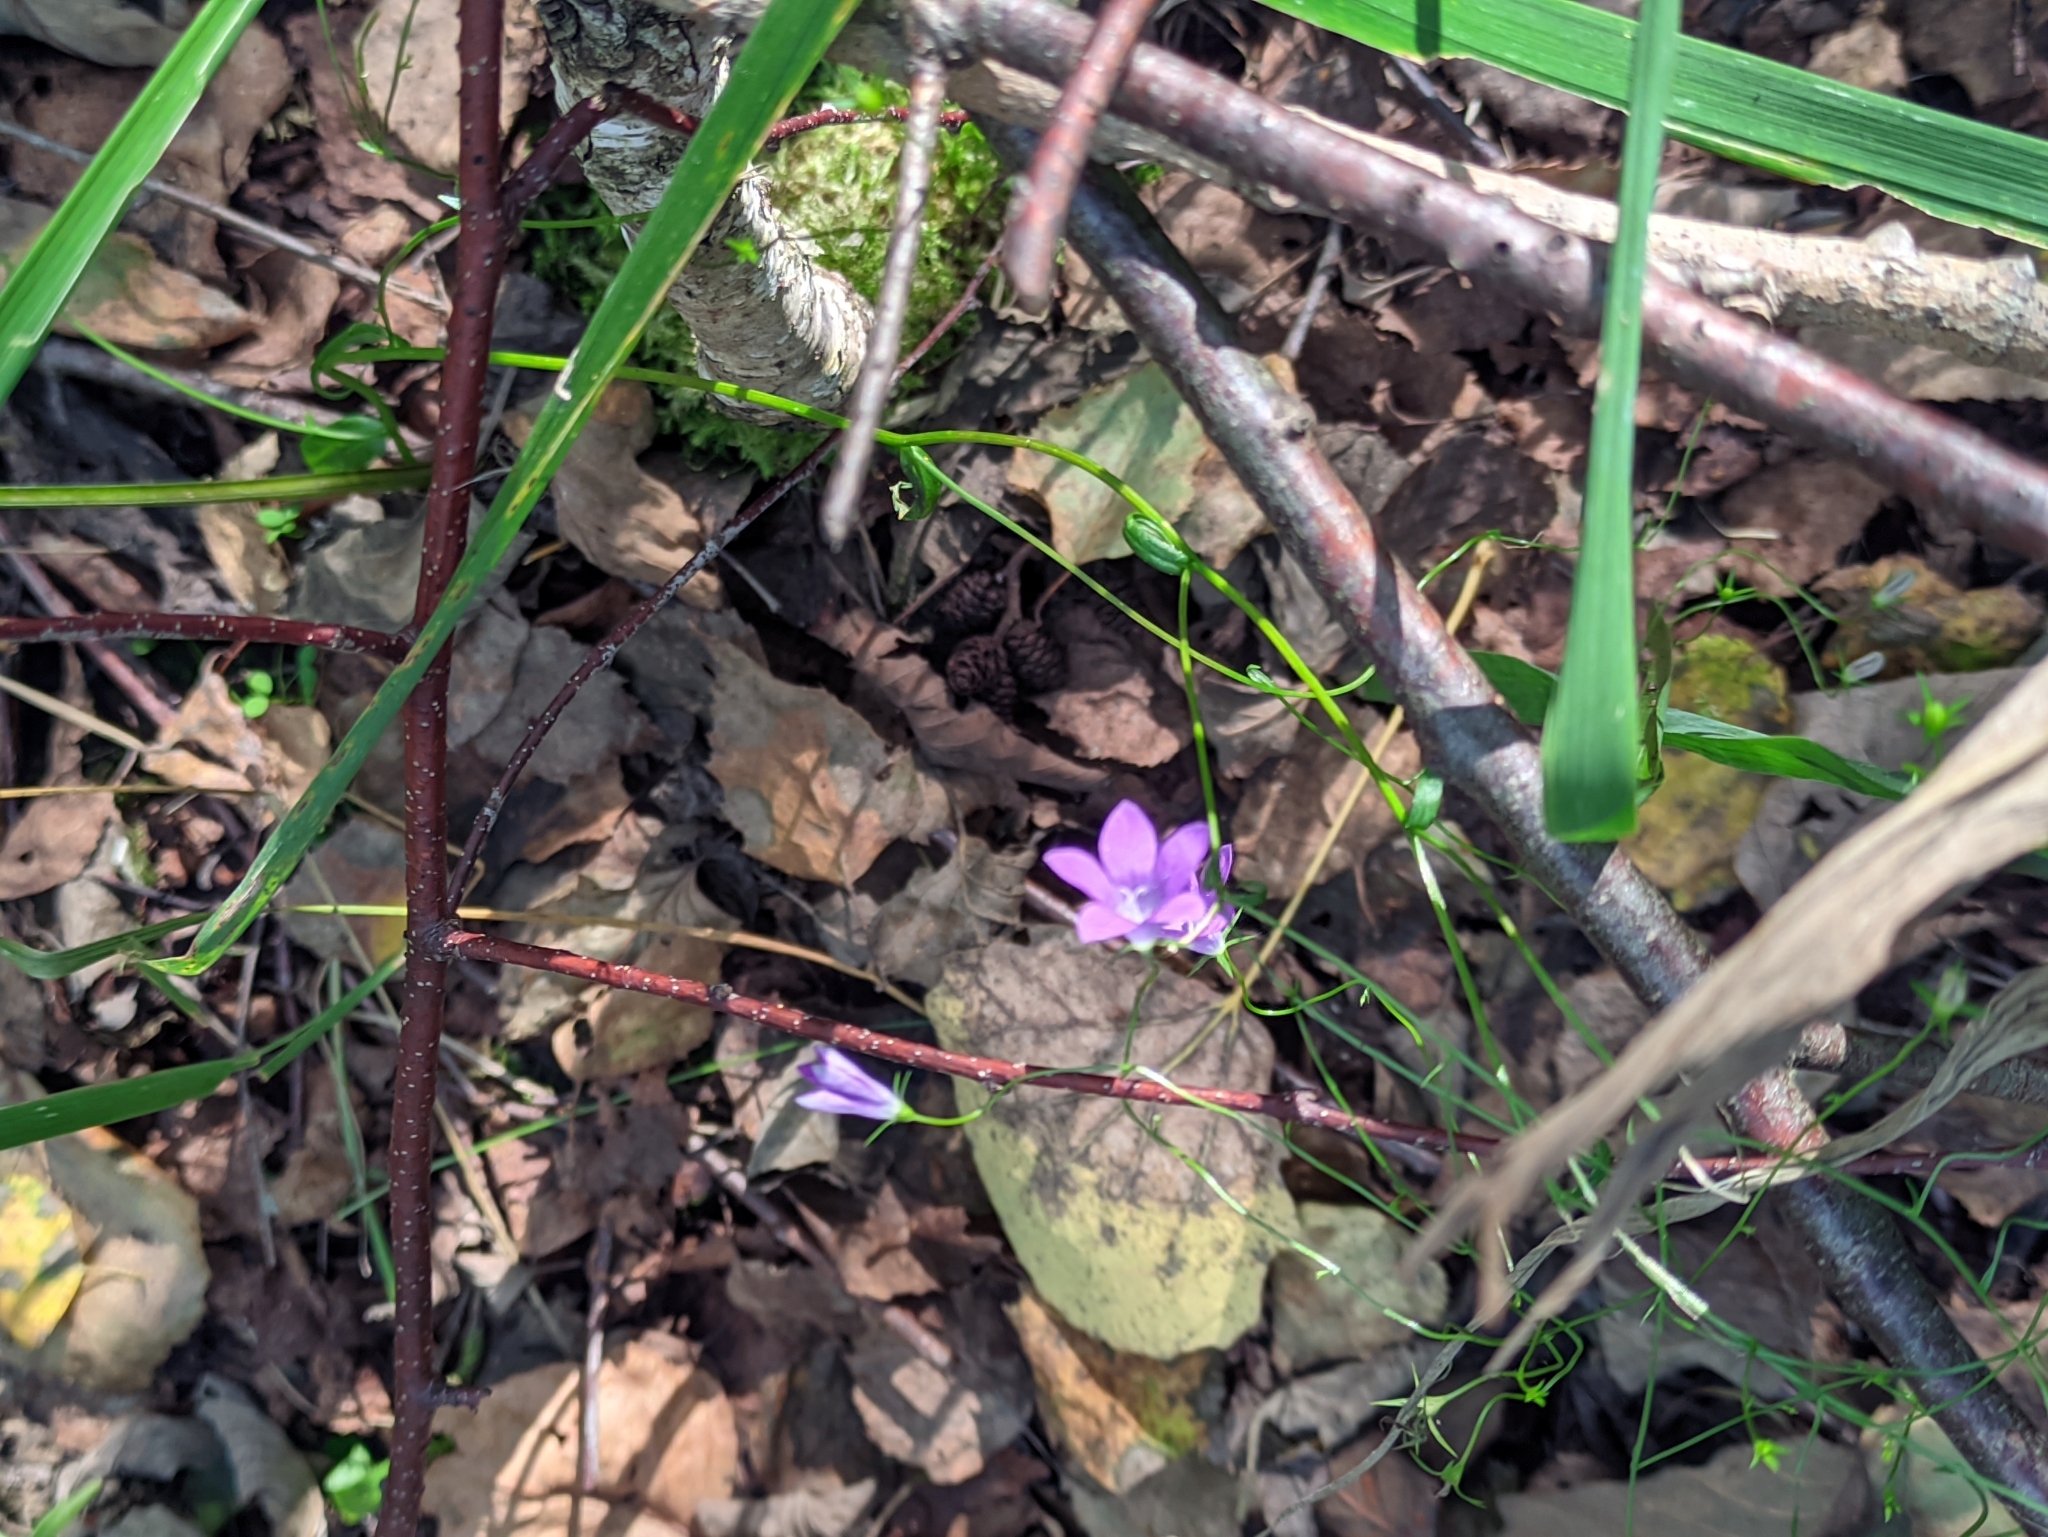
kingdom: Plantae
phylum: Tracheophyta
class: Magnoliopsida
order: Asterales
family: Campanulaceae
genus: Campanula
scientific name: Campanula patula
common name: Spreading bellflower
